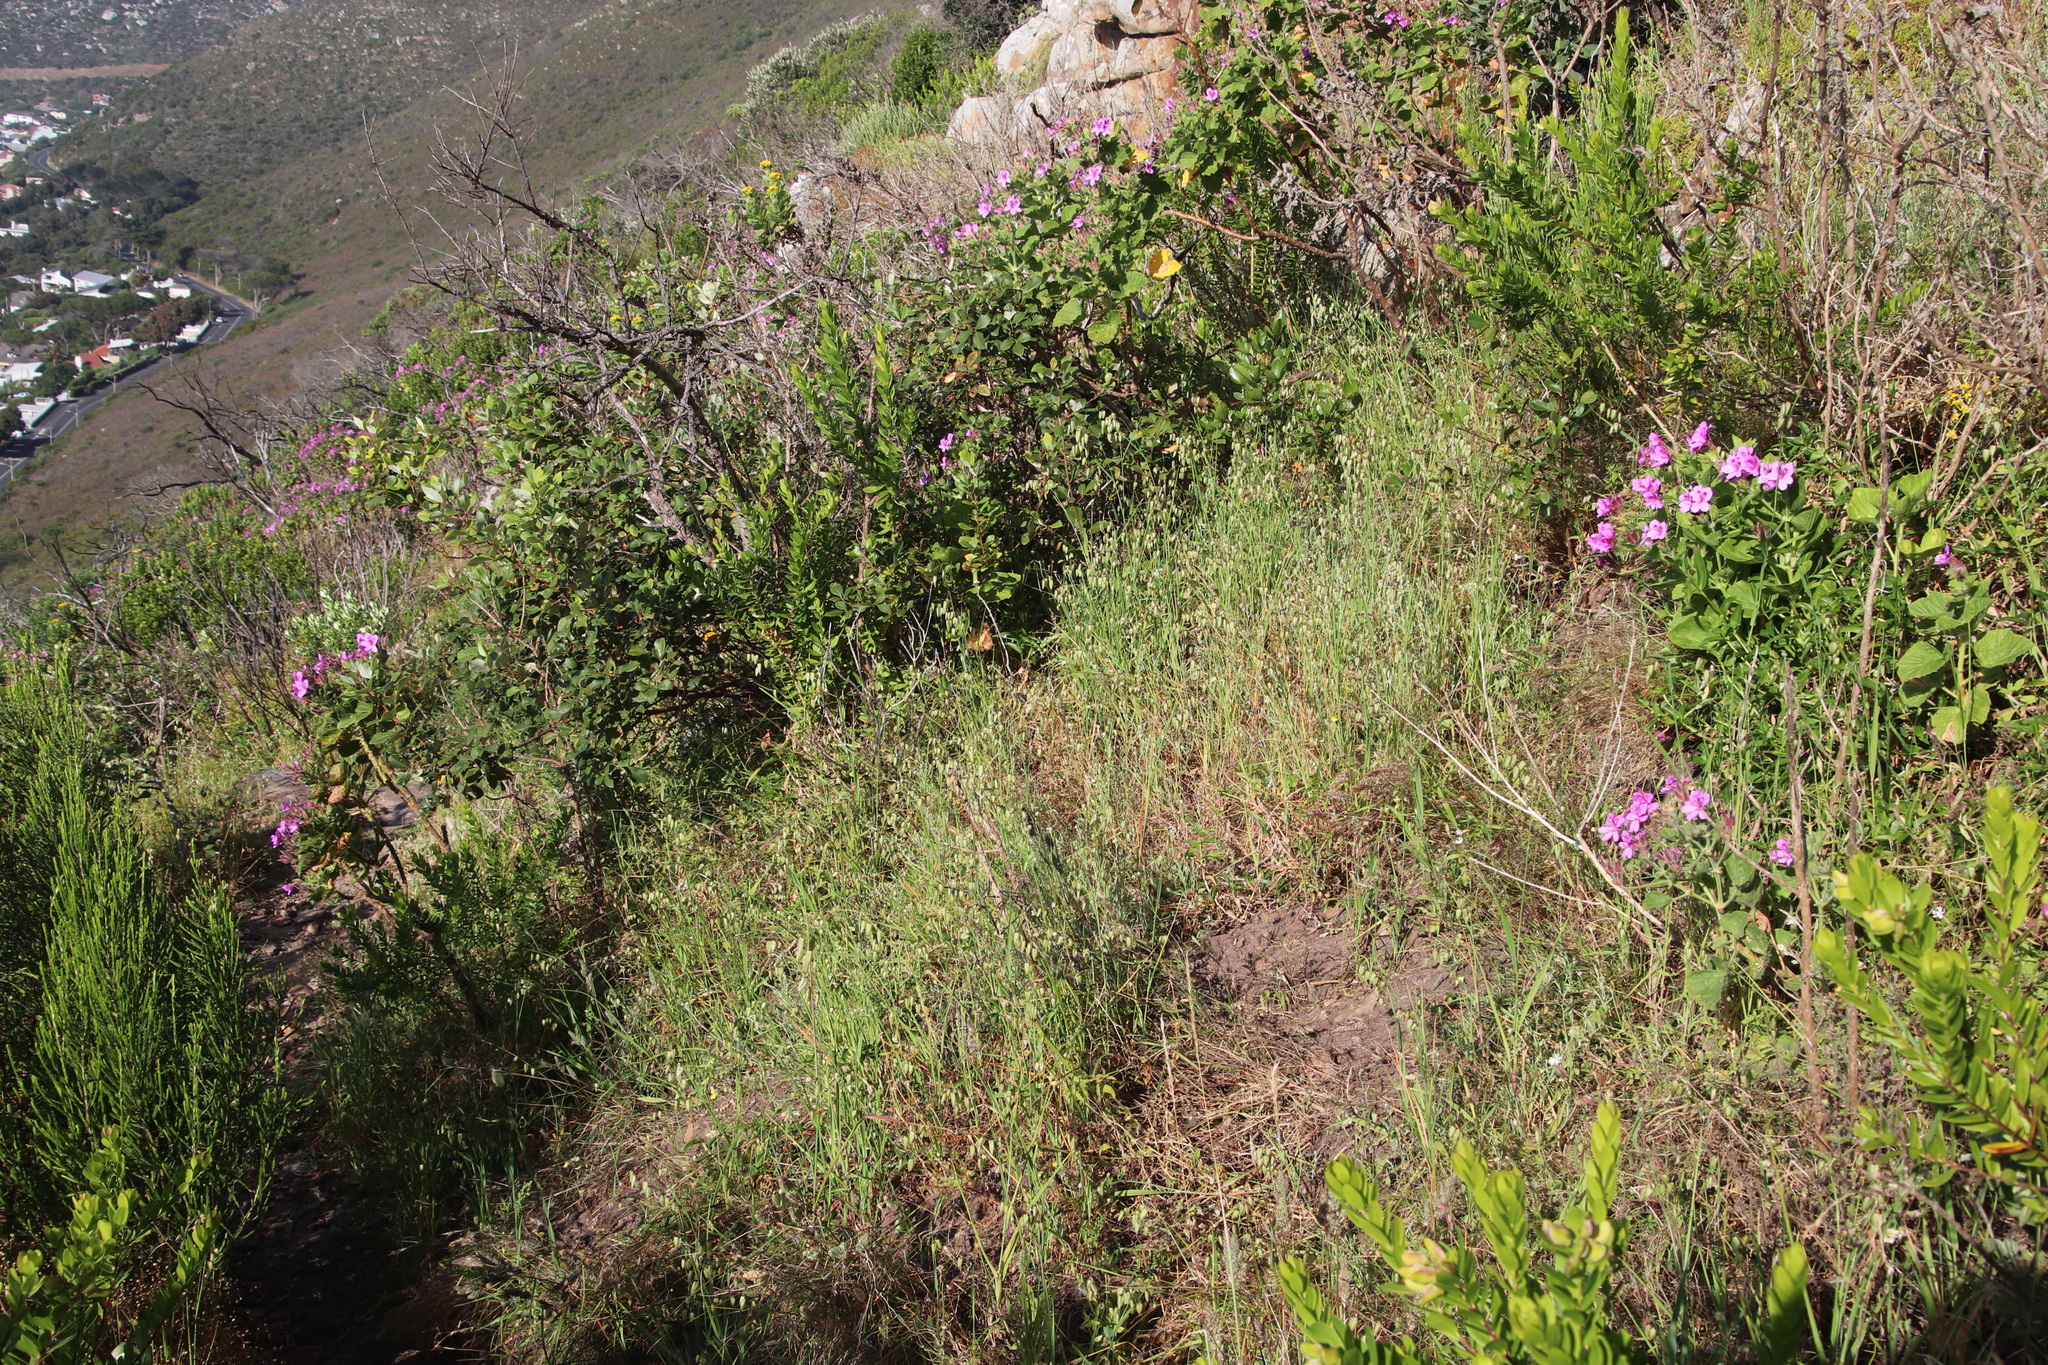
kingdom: Plantae
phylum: Tracheophyta
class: Liliopsida
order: Poales
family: Poaceae
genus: Briza
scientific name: Briza maxima
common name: Big quakinggrass
